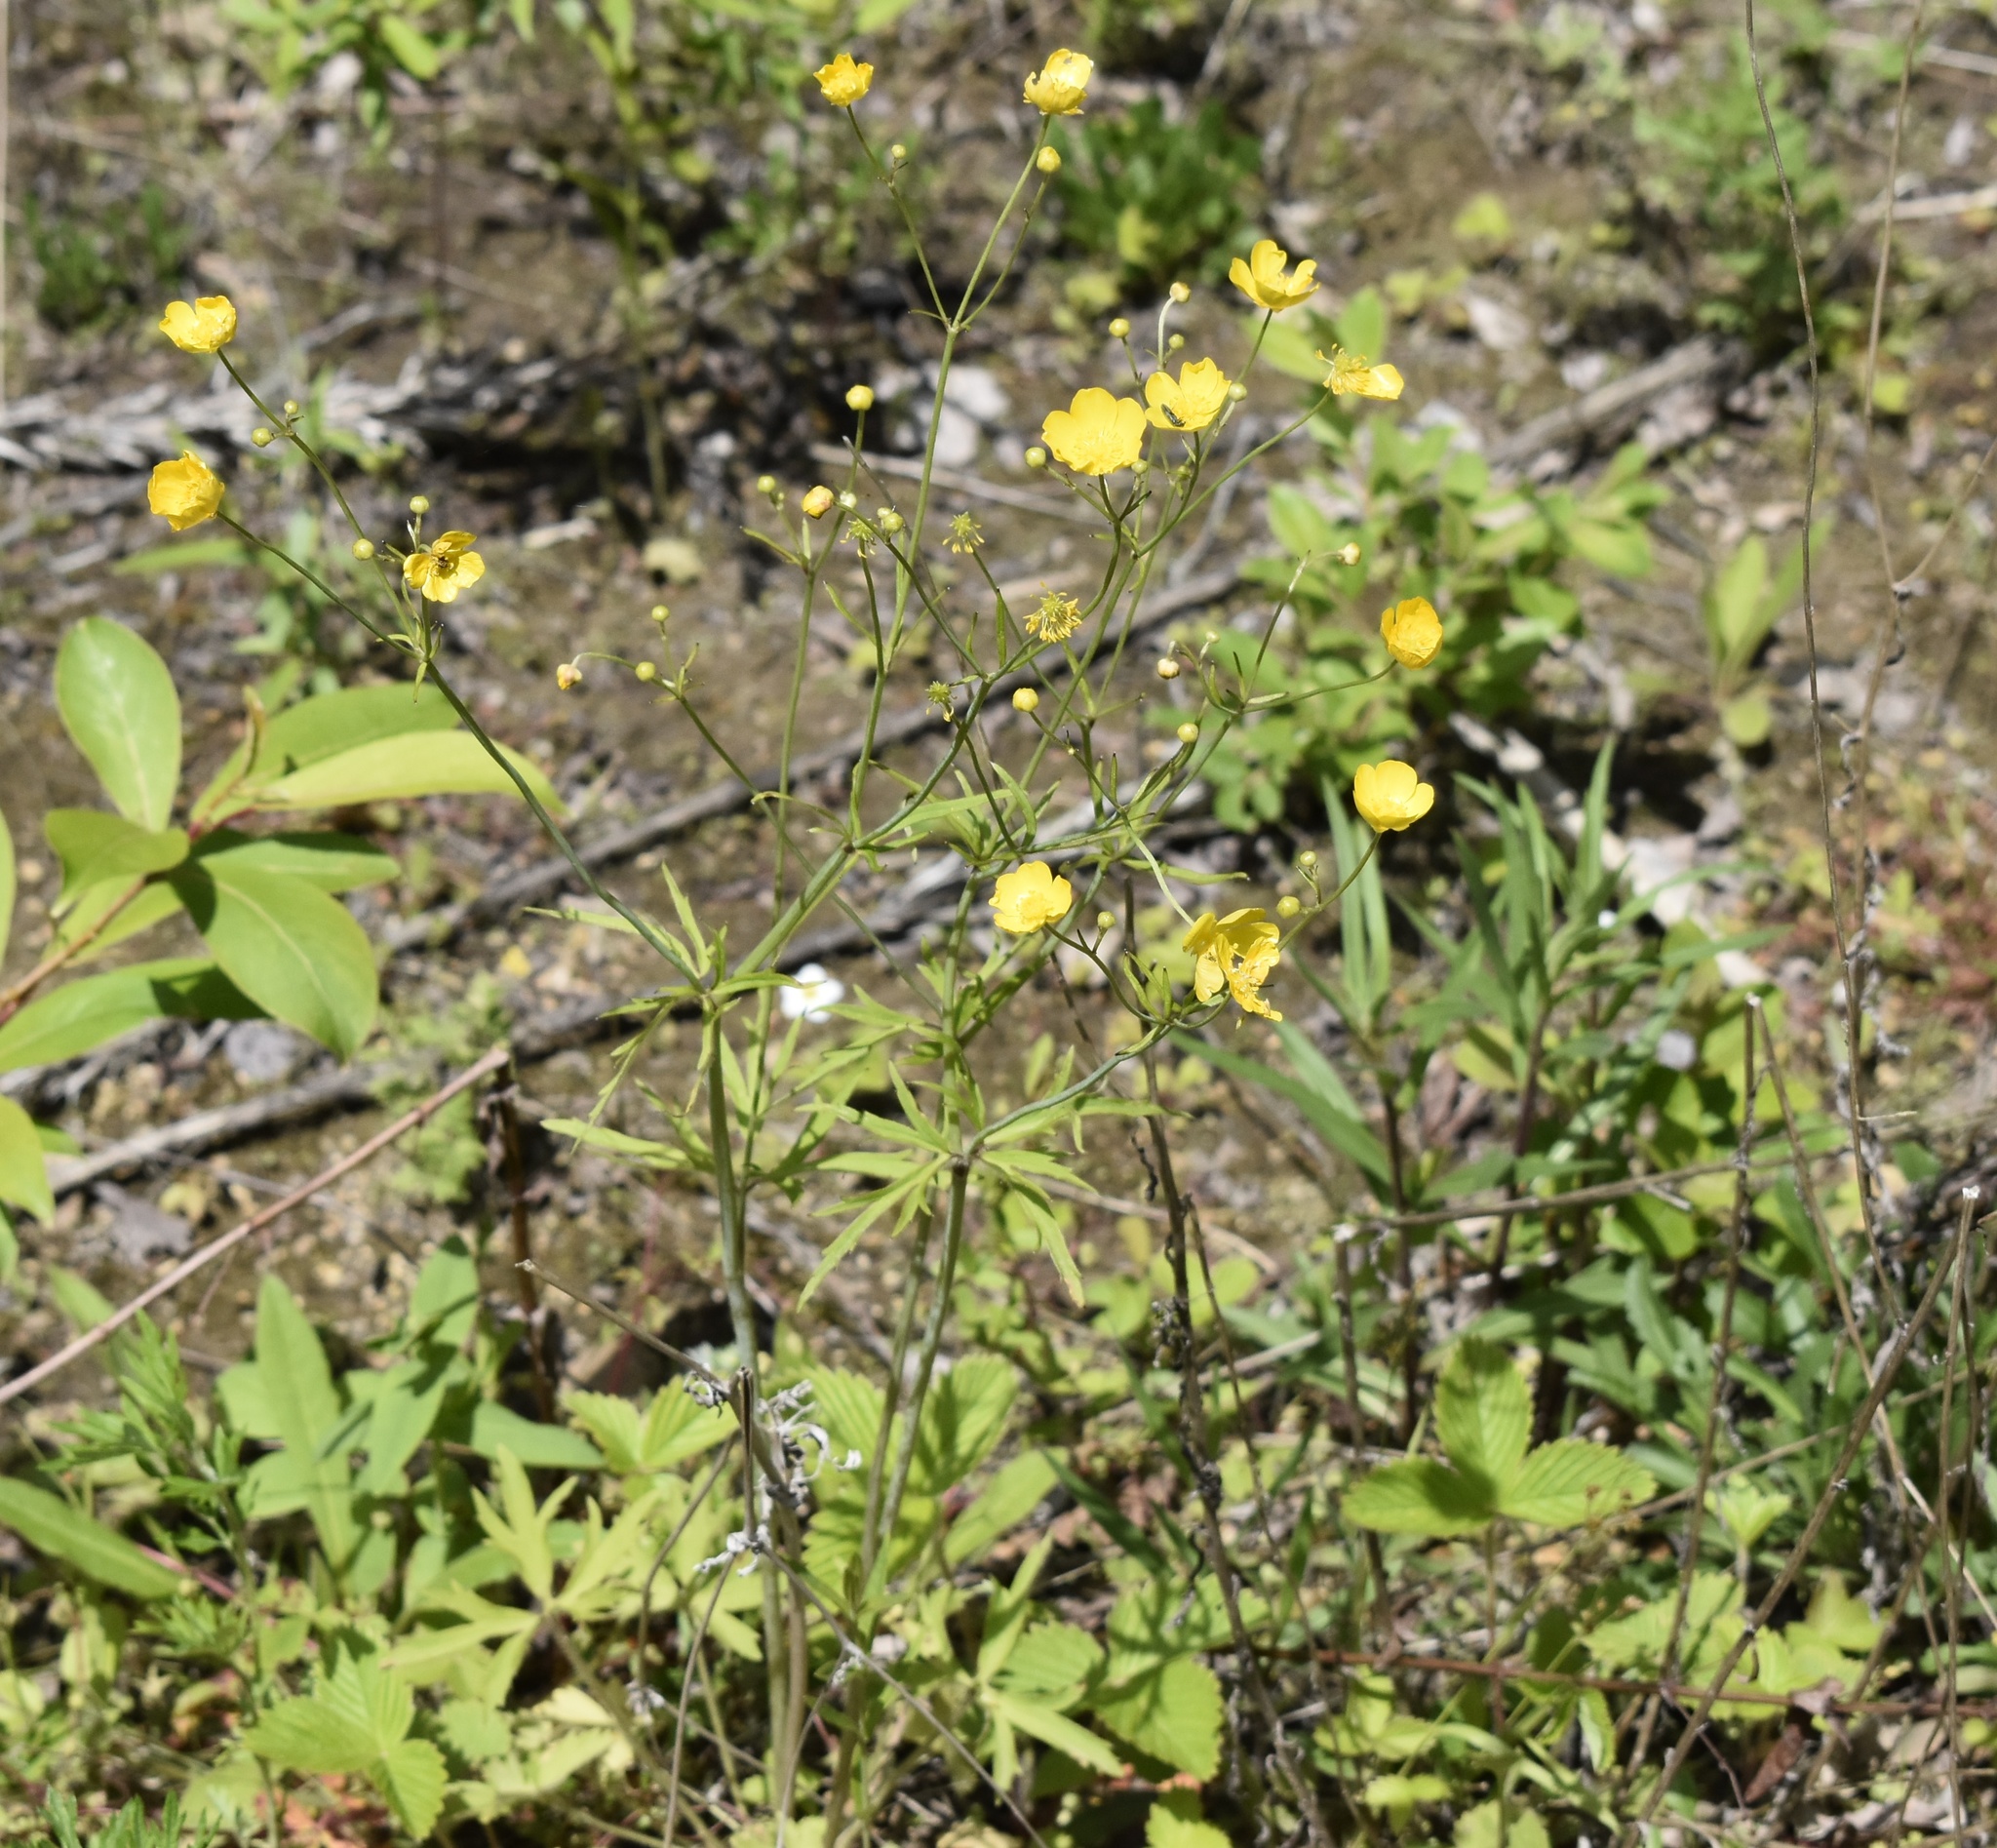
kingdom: Plantae
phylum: Tracheophyta
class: Magnoliopsida
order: Ranunculales
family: Ranunculaceae
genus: Ranunculus
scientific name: Ranunculus japonicus
